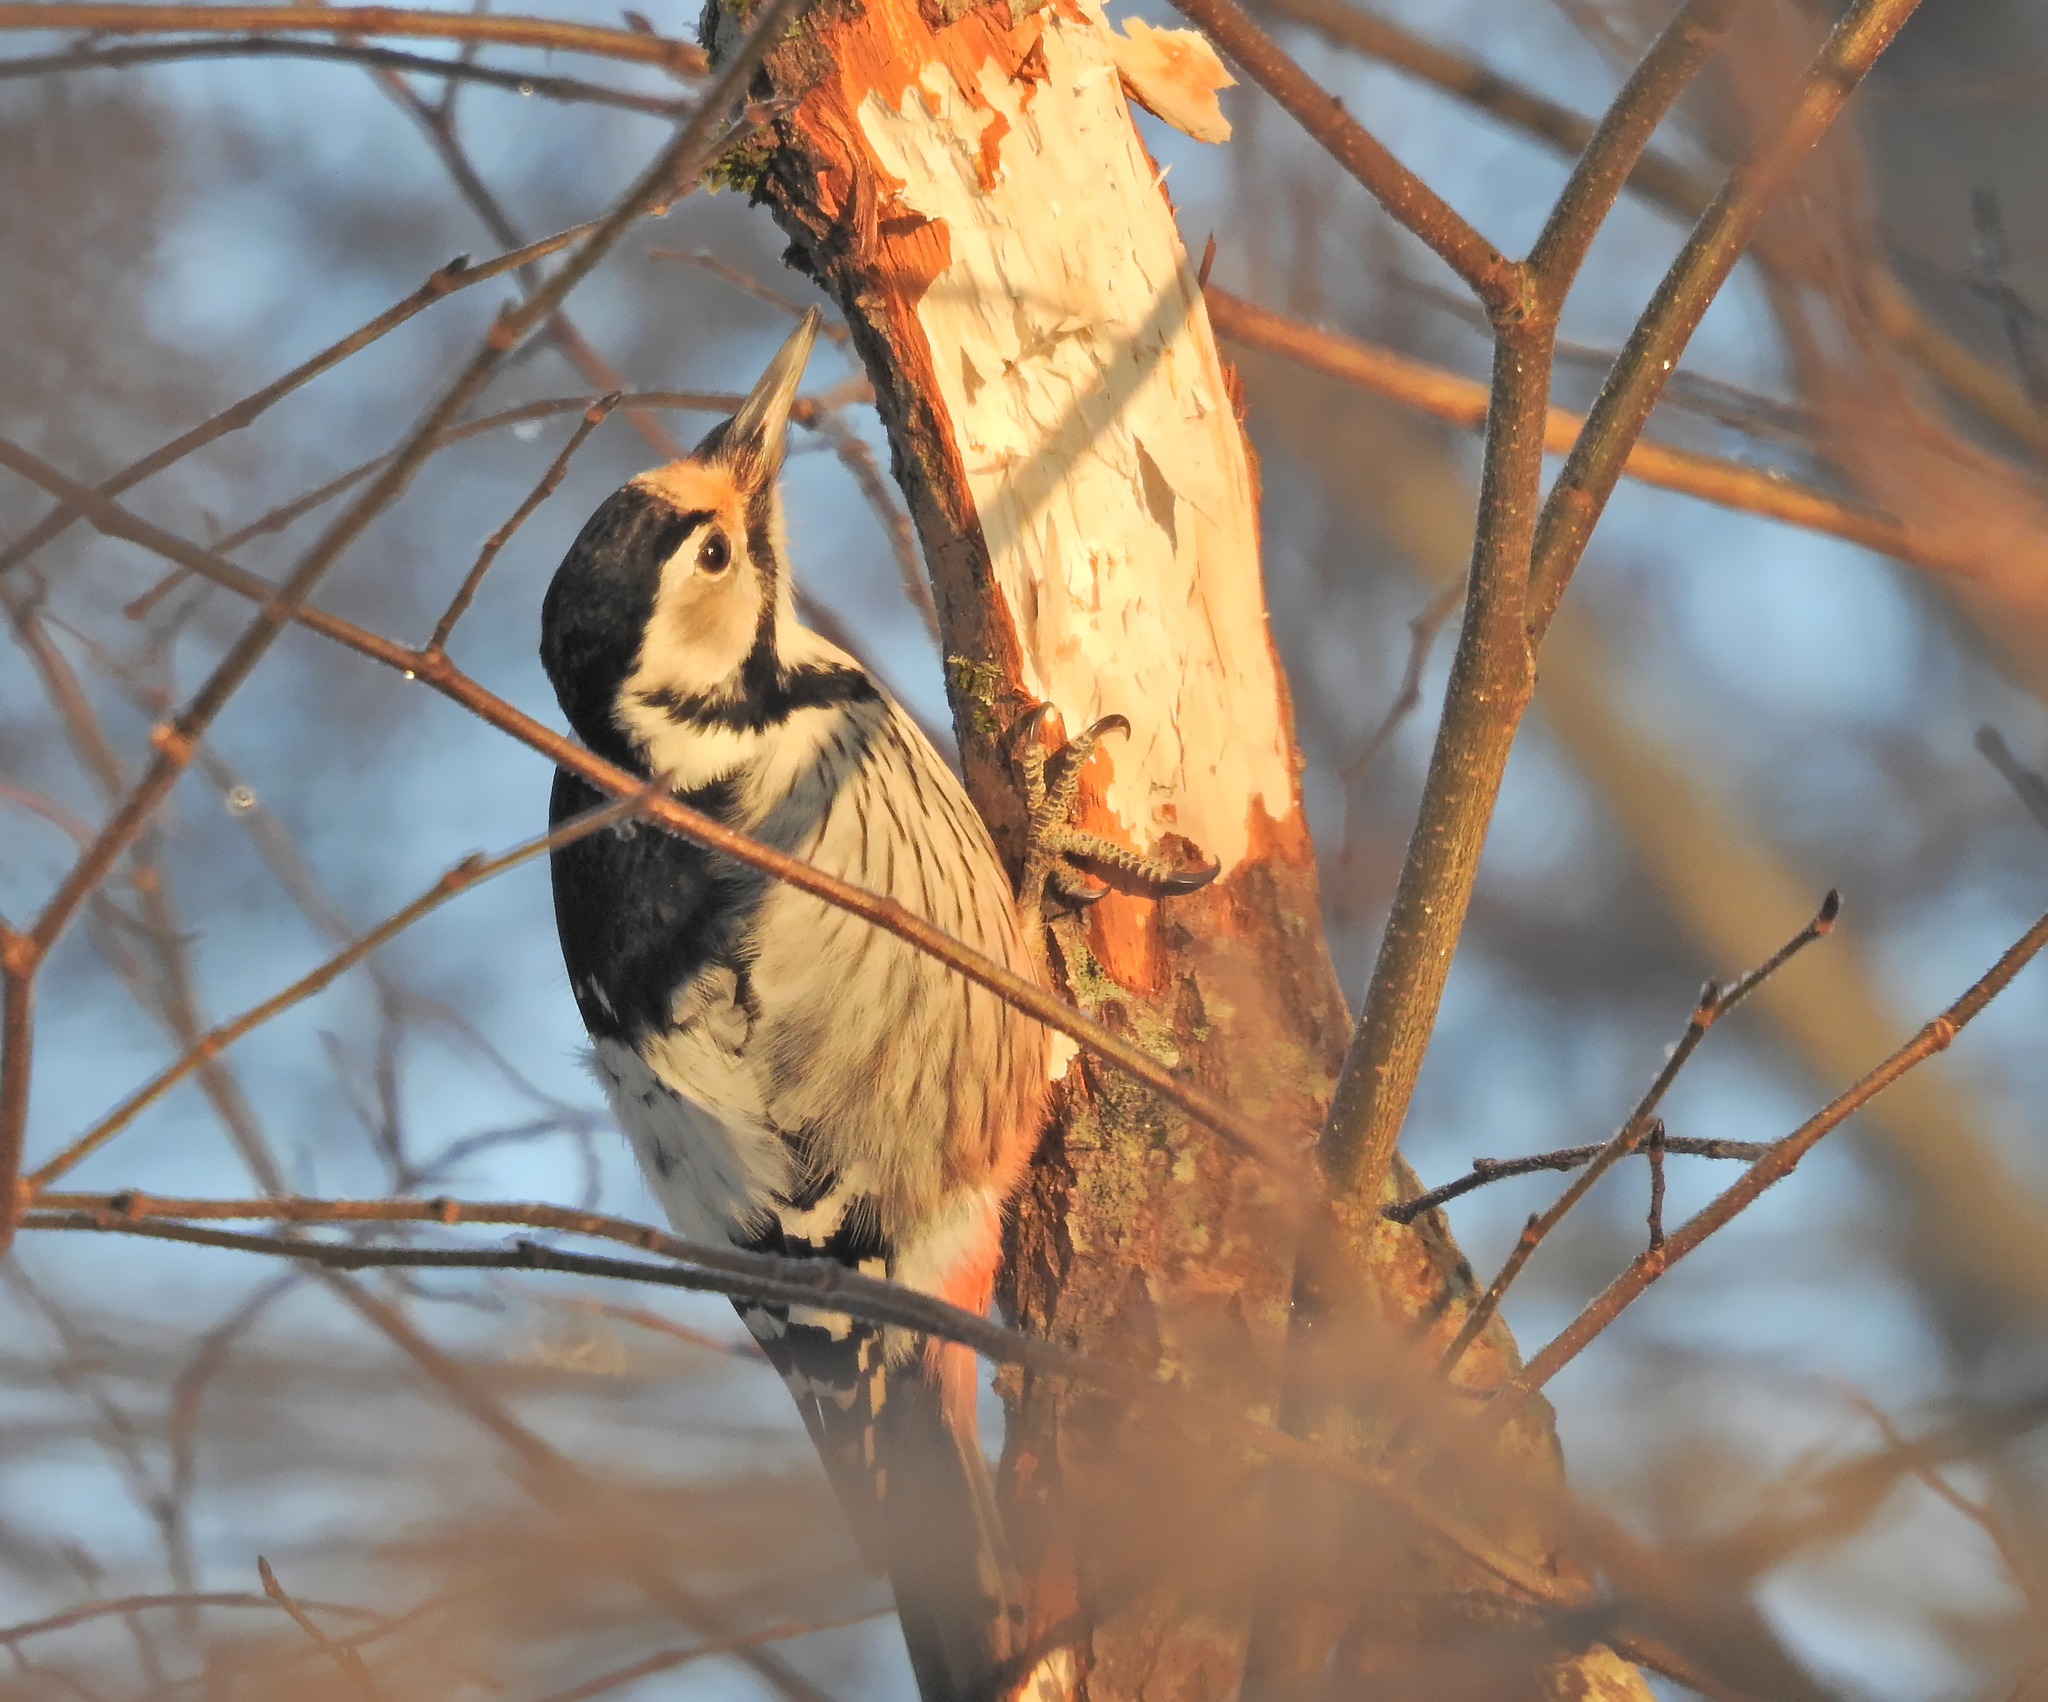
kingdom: Animalia
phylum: Chordata
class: Aves
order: Piciformes
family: Picidae
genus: Dendrocopos
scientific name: Dendrocopos leucotos
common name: White-backed woodpecker
